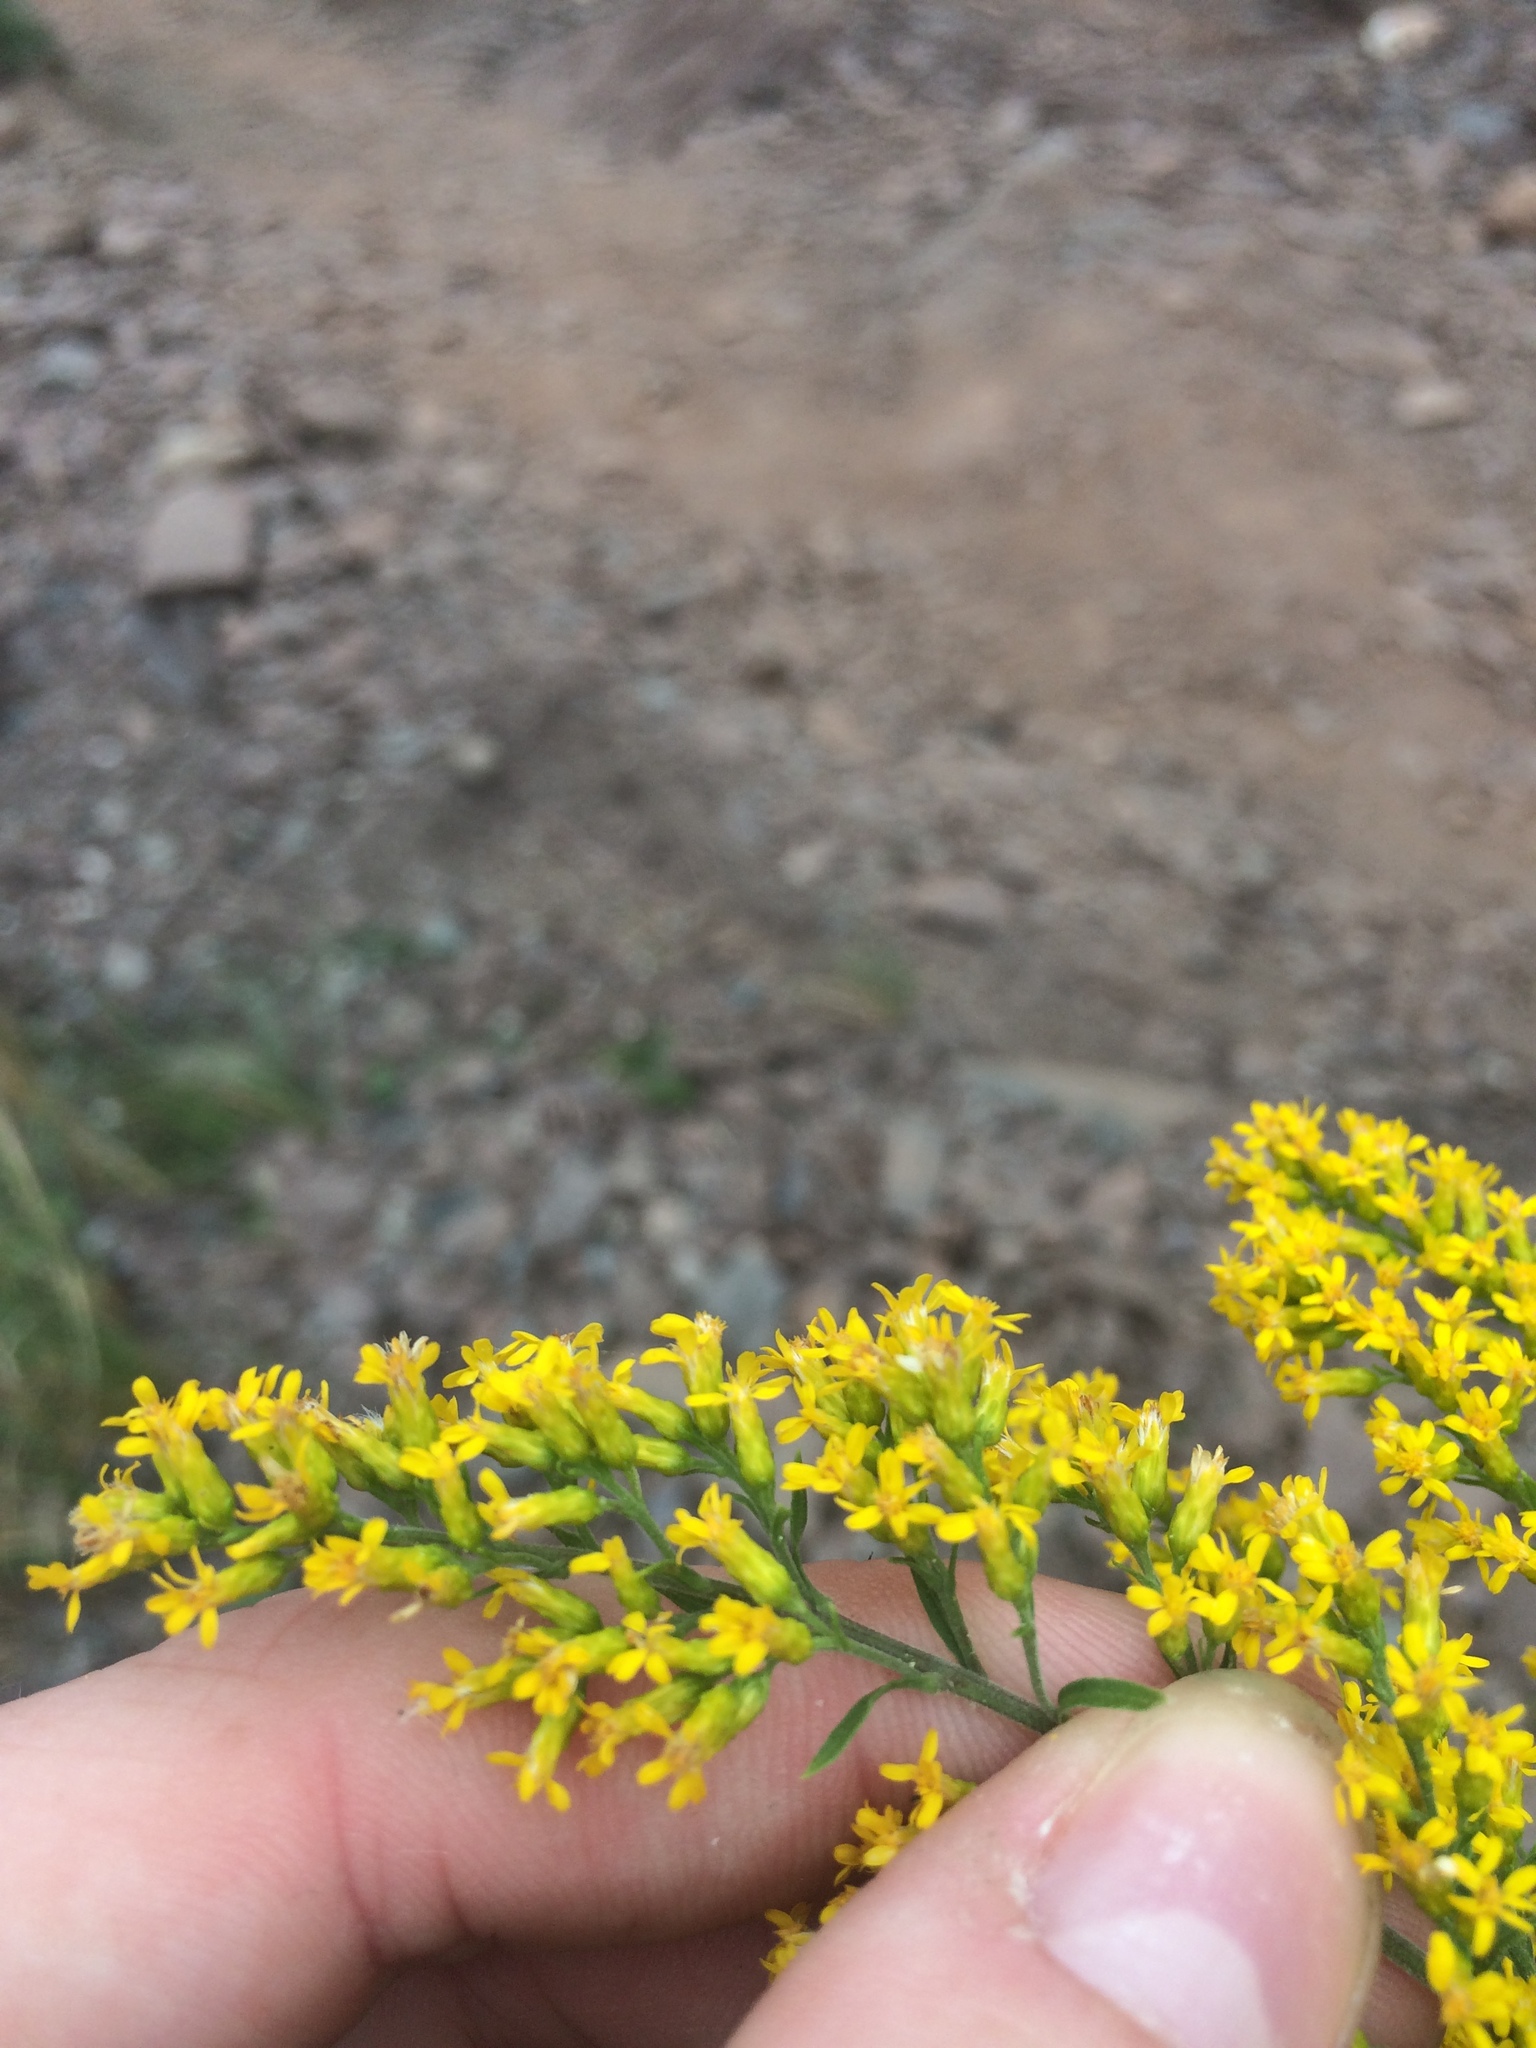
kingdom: Plantae
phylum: Tracheophyta
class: Magnoliopsida
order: Asterales
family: Asteraceae
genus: Solidago
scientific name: Solidago nemoralis
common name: Grey goldenrod
